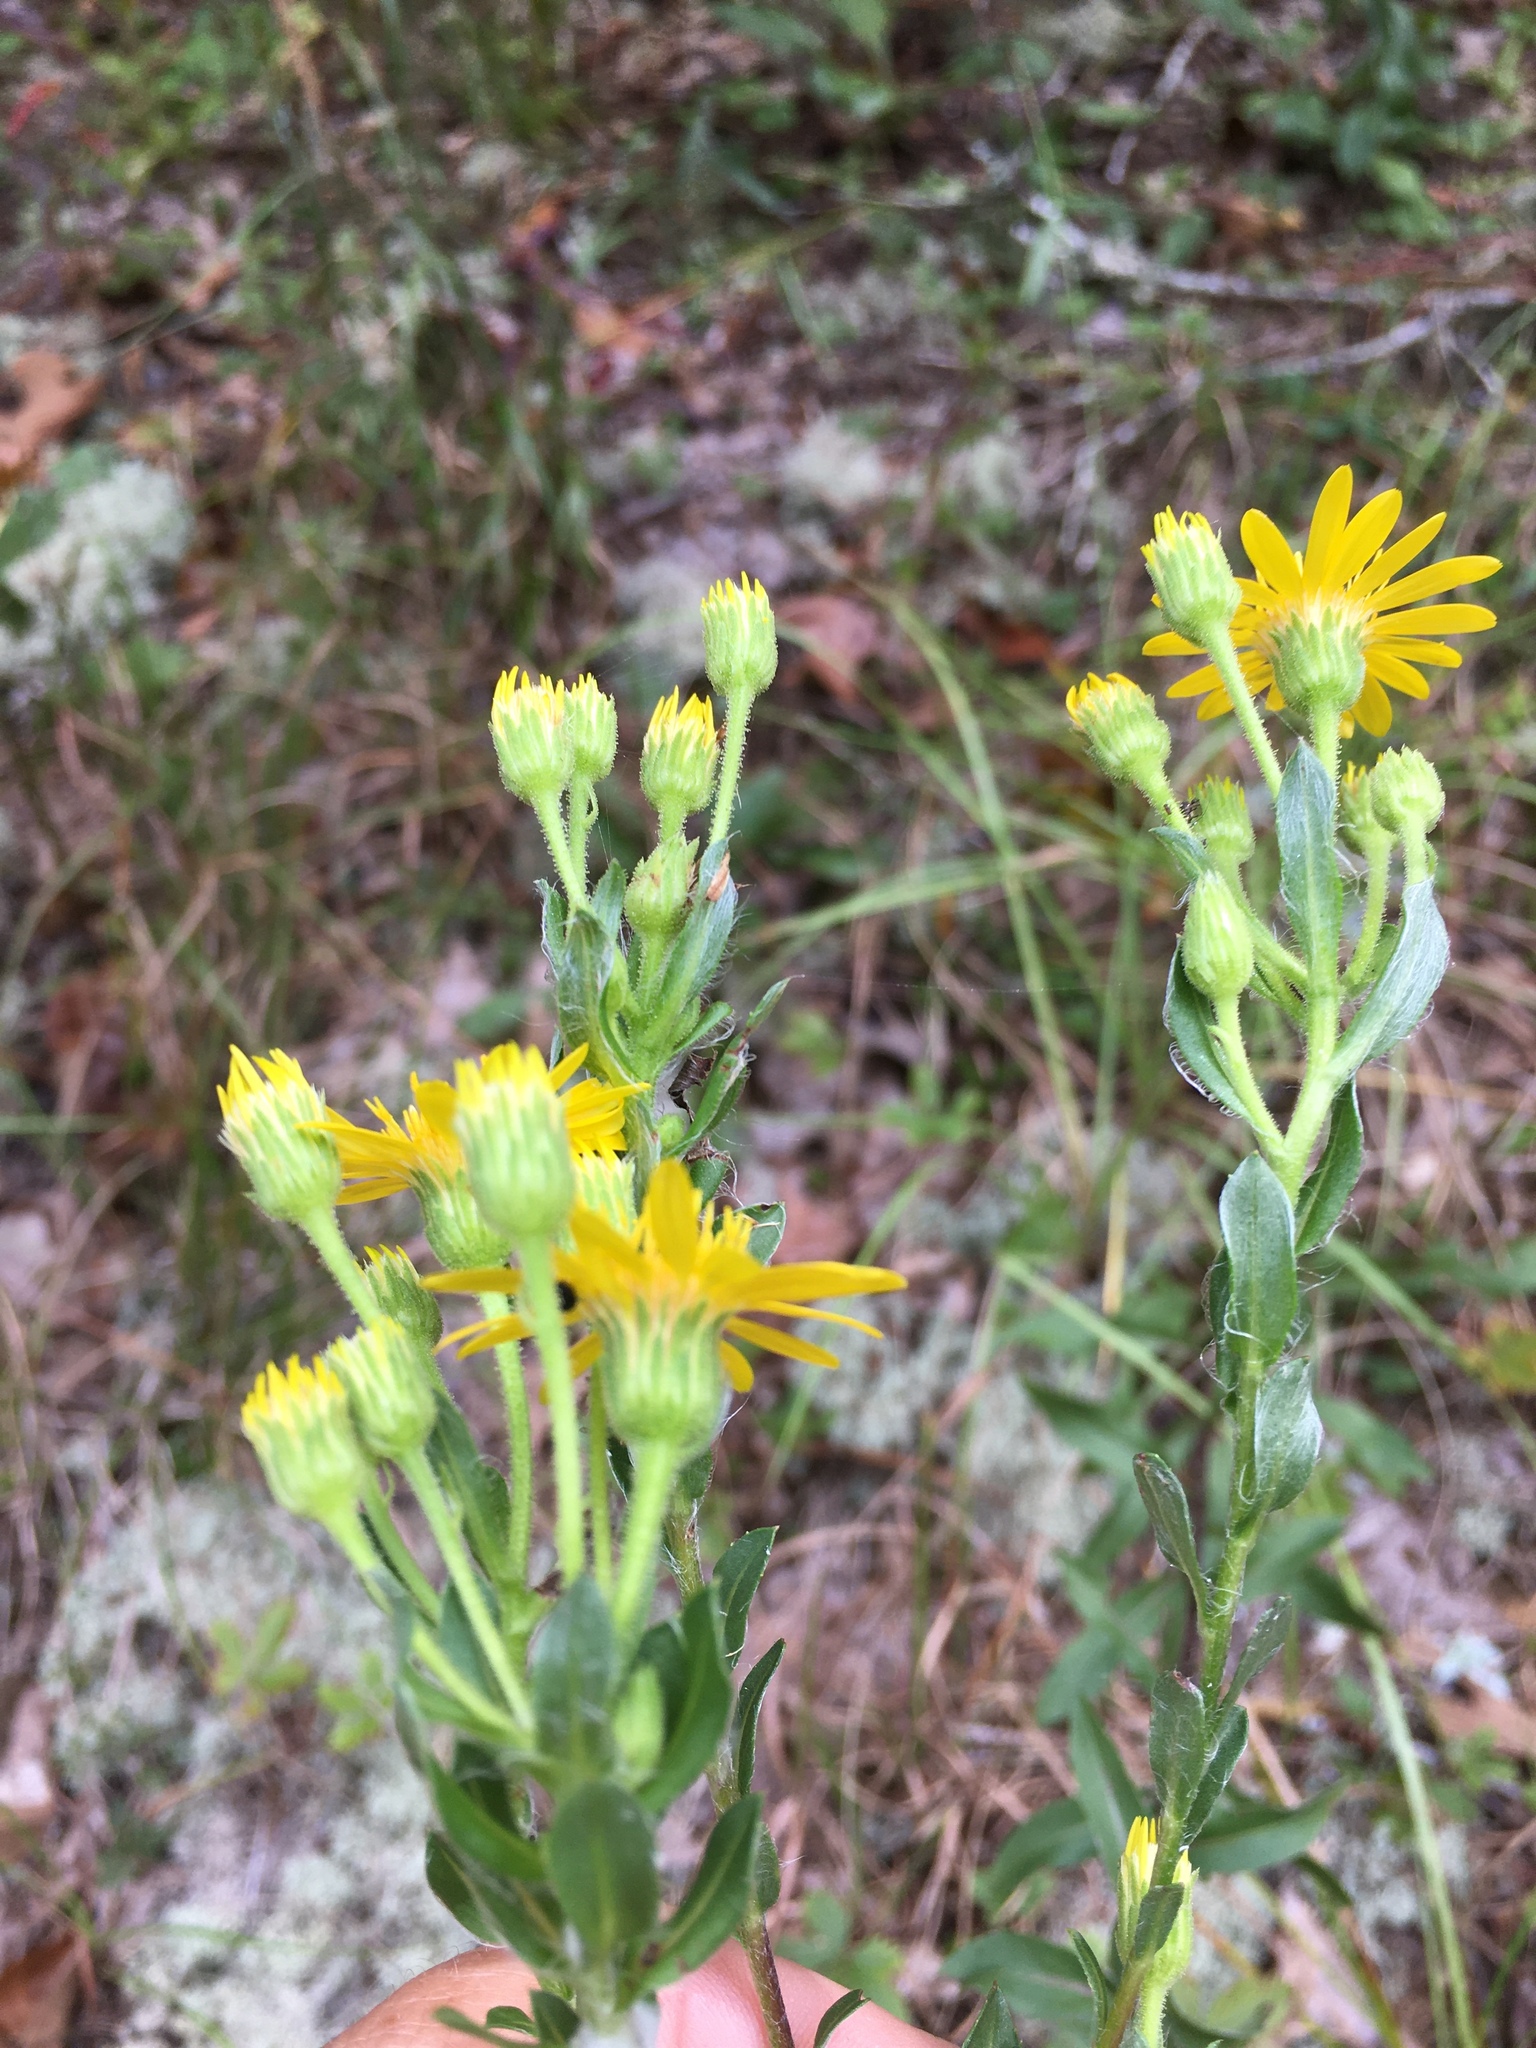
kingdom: Plantae
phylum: Tracheophyta
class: Magnoliopsida
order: Asterales
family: Asteraceae
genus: Chrysopsis
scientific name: Chrysopsis mariana
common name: Maryland golden-aster
